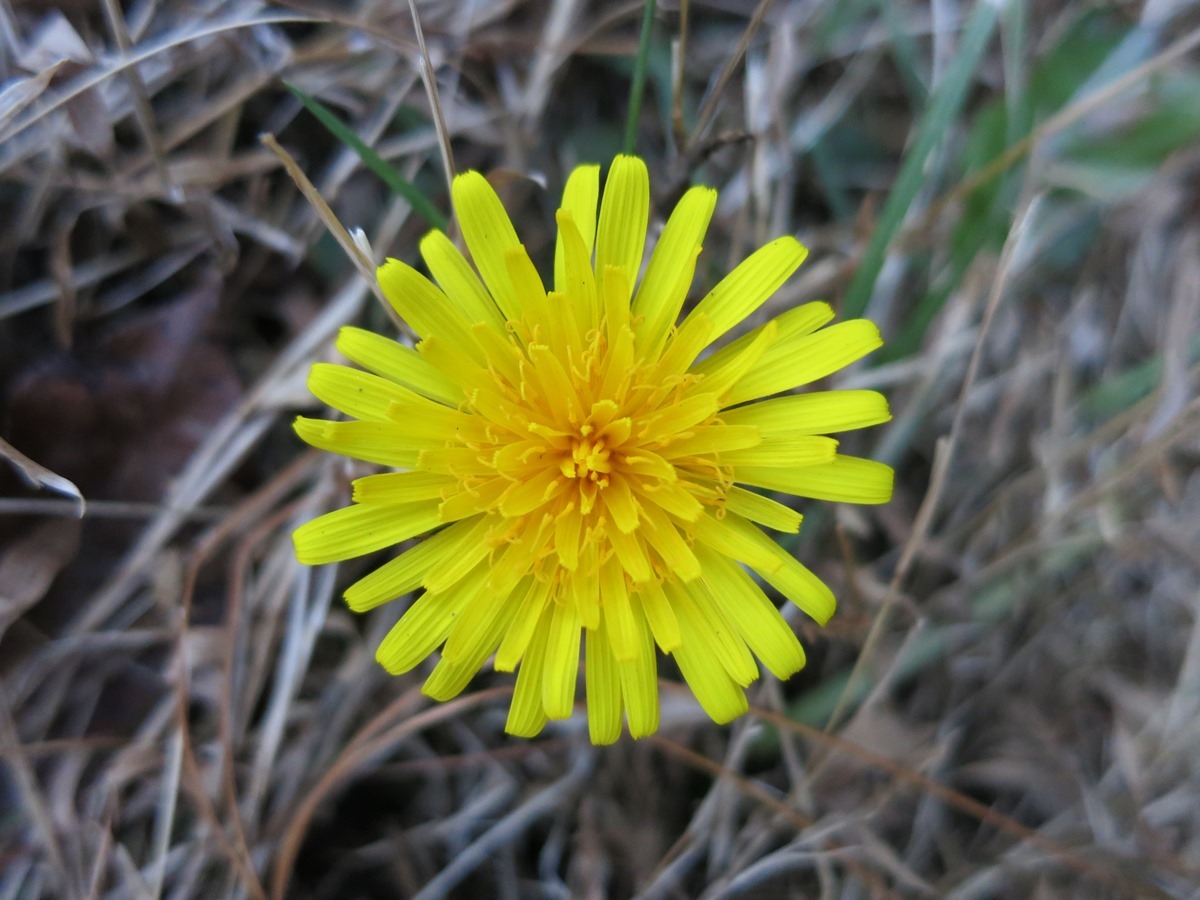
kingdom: Plantae
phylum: Tracheophyta
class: Magnoliopsida
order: Asterales
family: Asteraceae
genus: Taraxacum
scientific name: Taraxacum officinale
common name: Common dandelion
